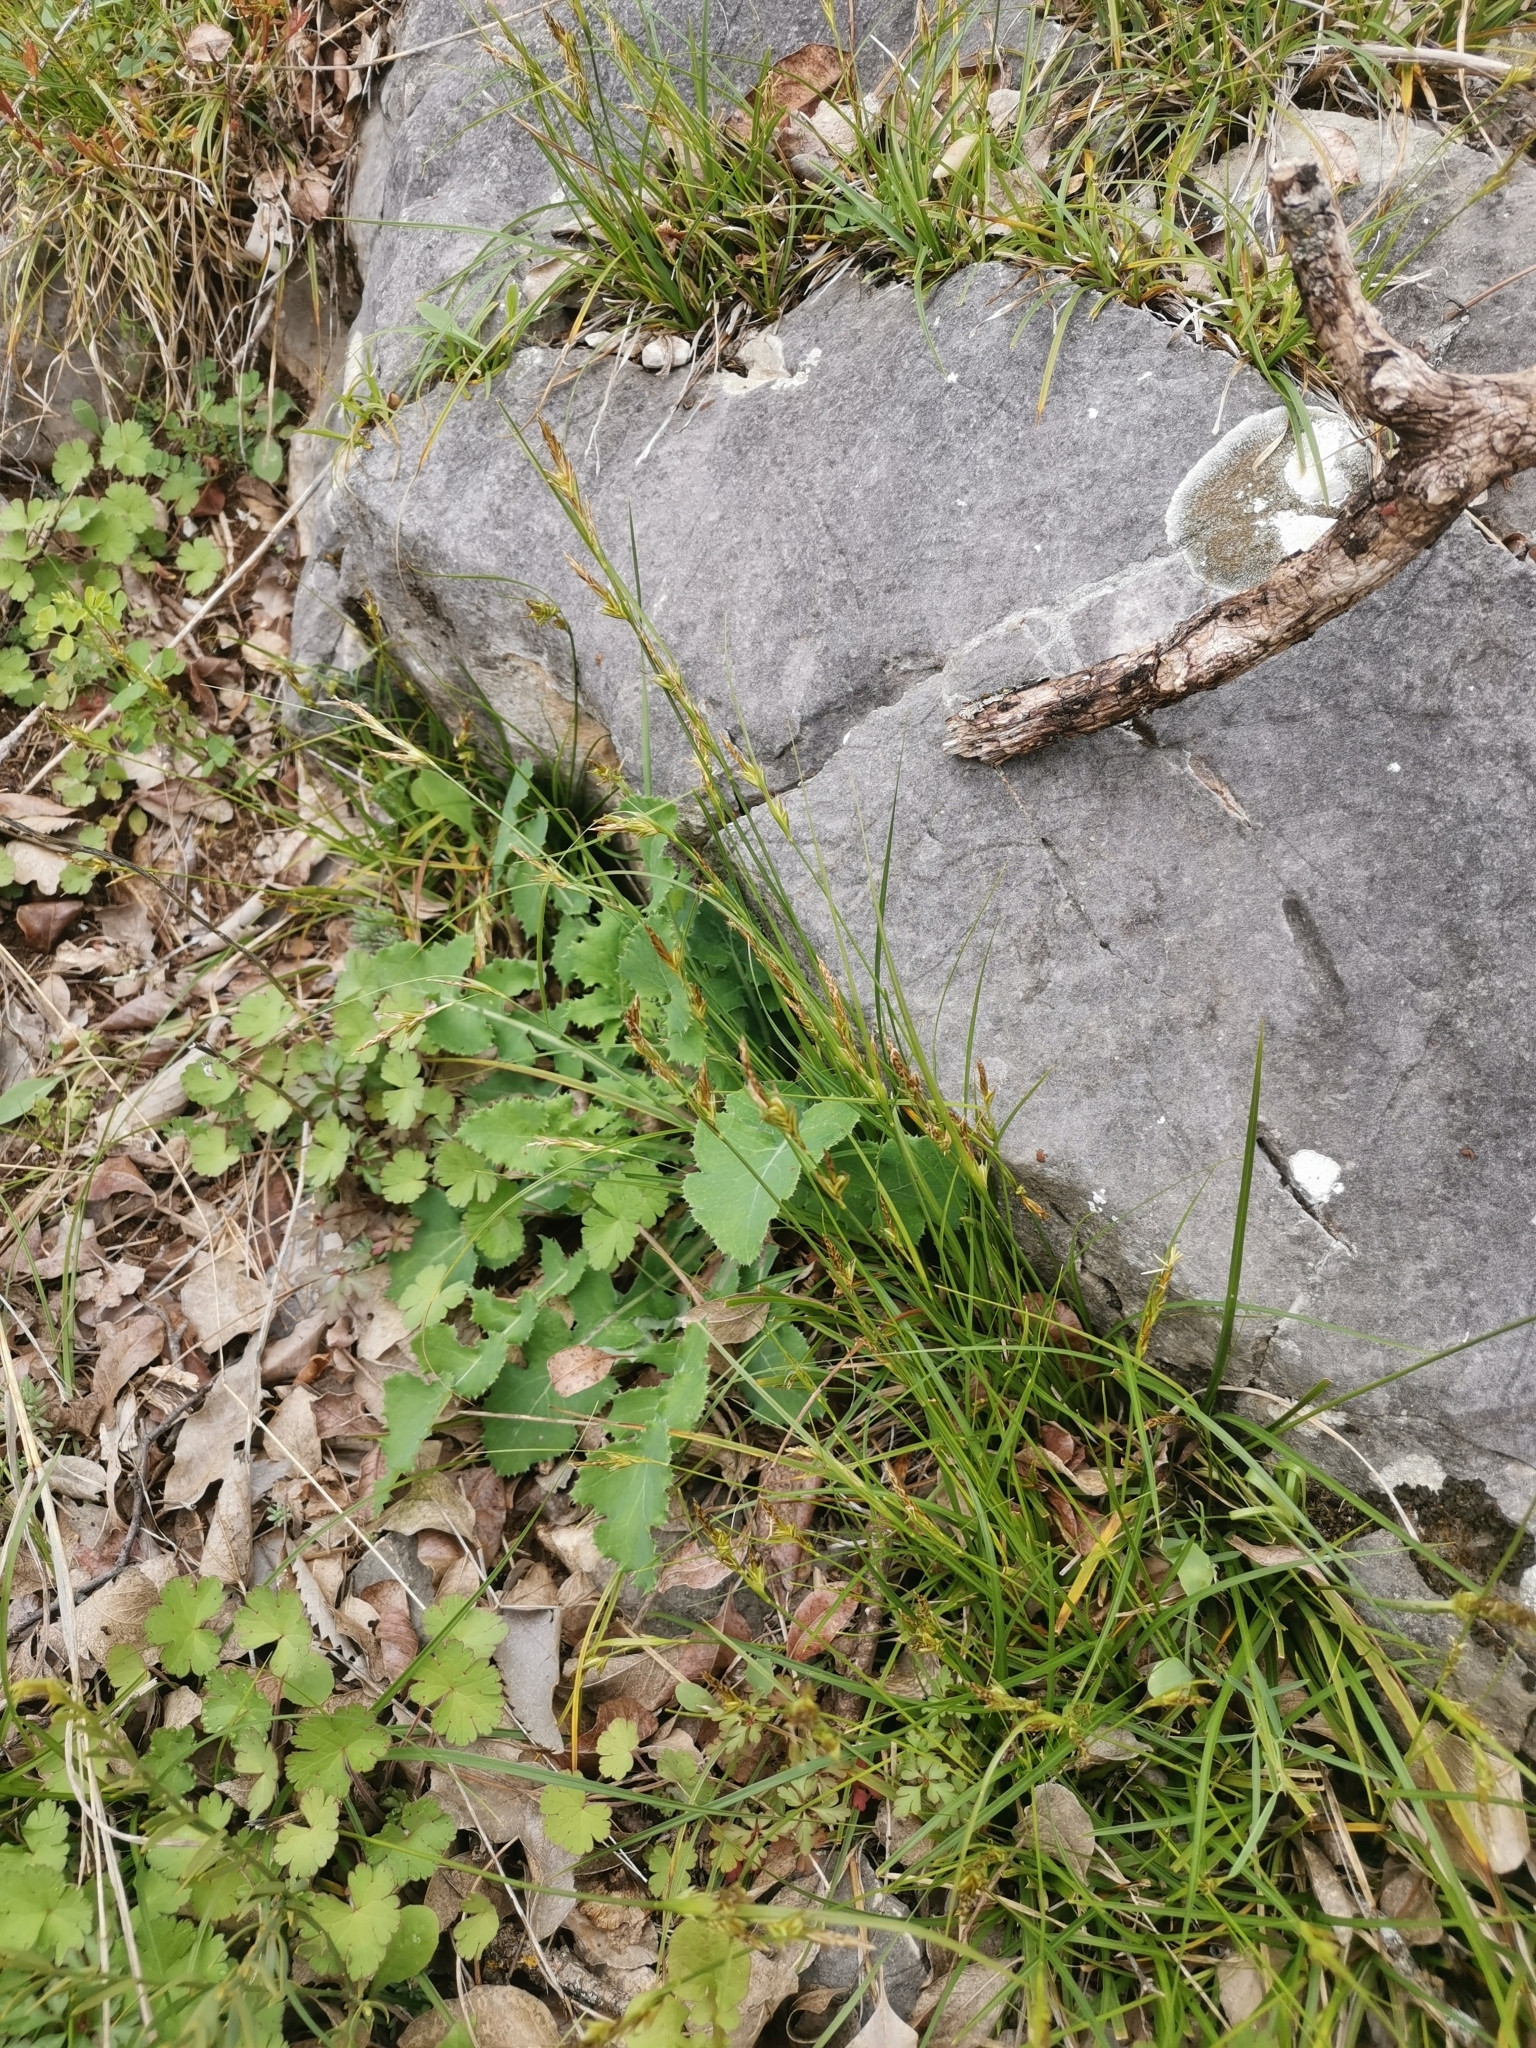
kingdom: Plantae
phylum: Tracheophyta
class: Liliopsida
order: Poales
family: Cyperaceae
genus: Carex
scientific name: Carex distachya
